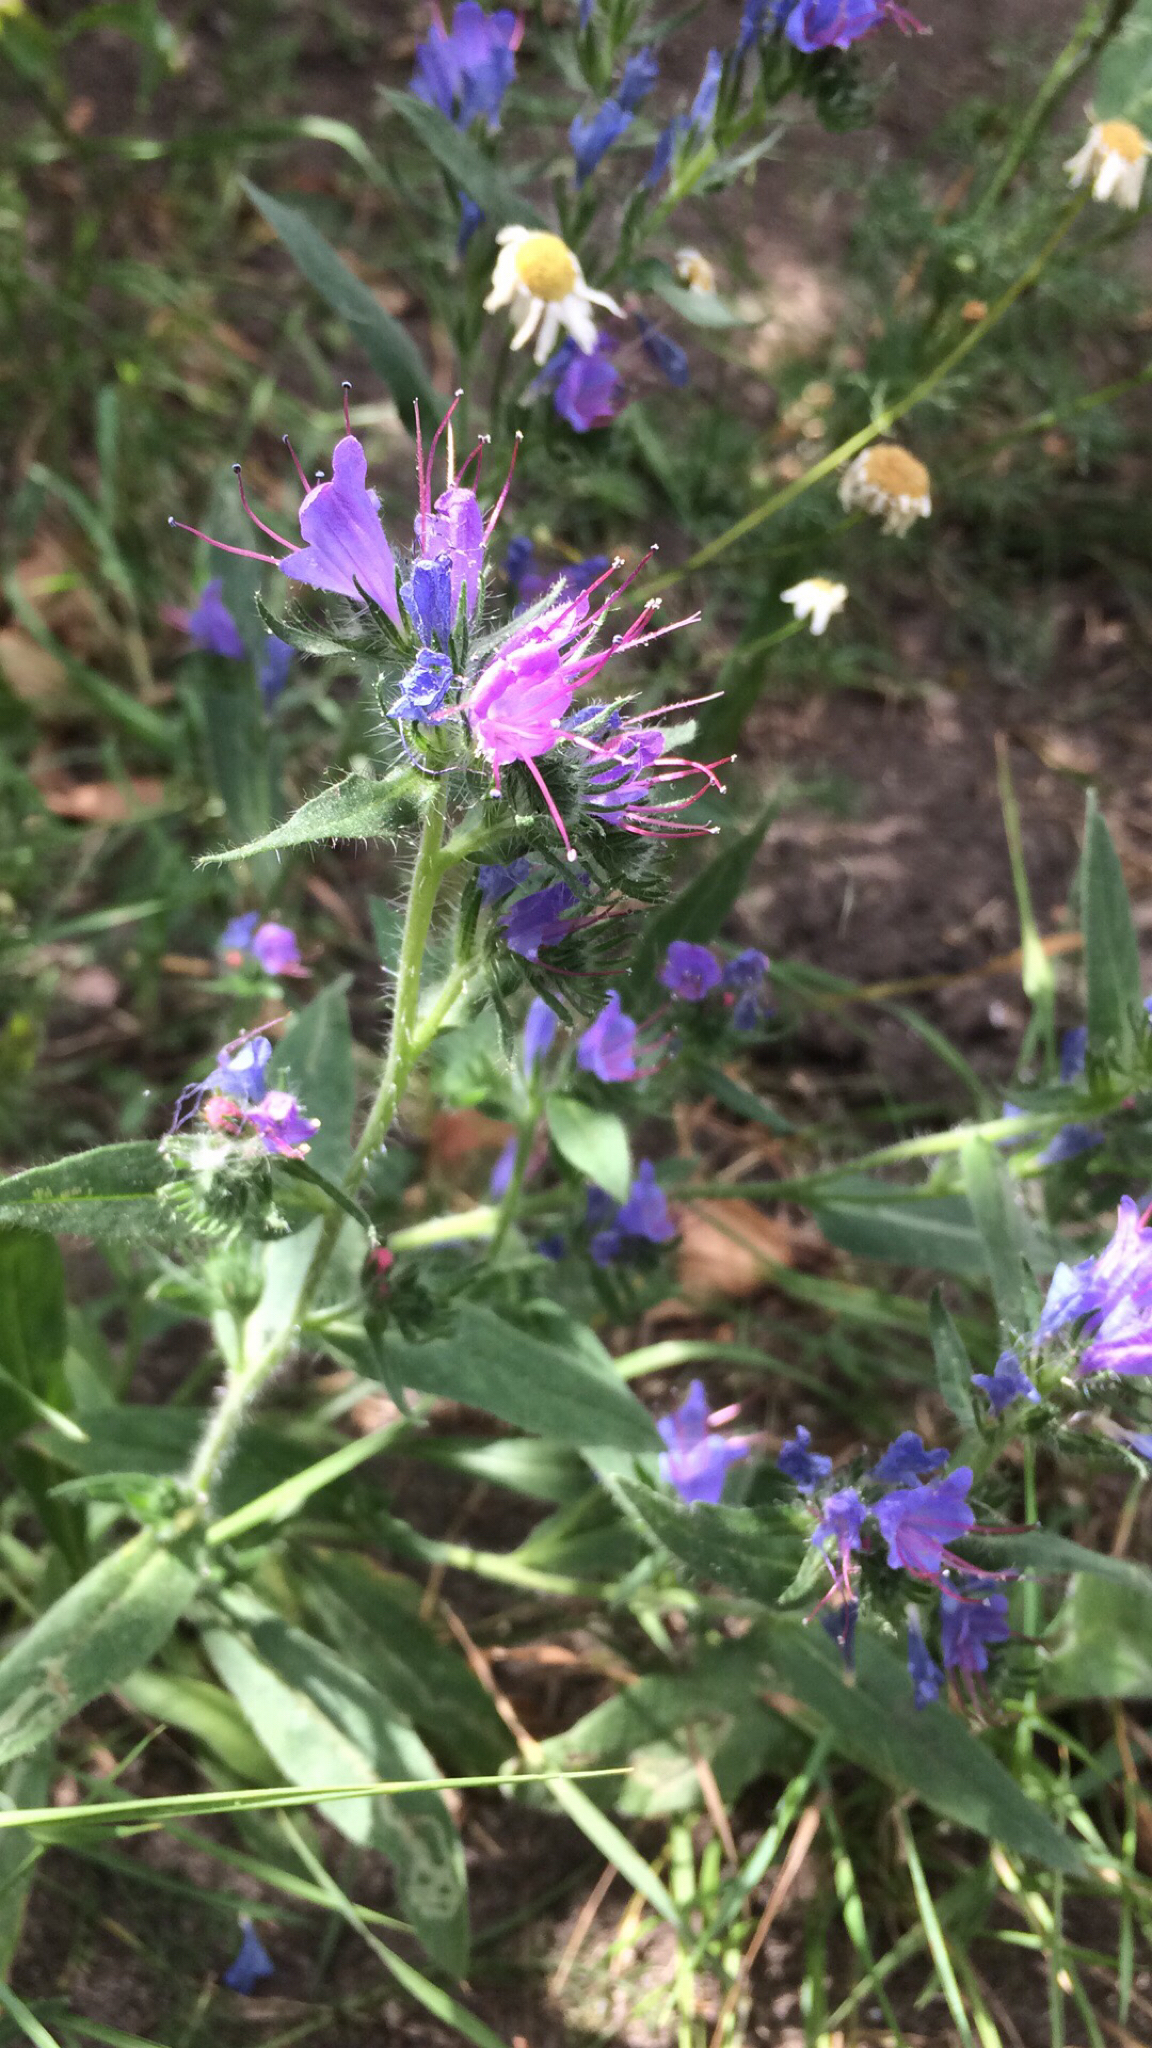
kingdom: Plantae
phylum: Tracheophyta
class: Magnoliopsida
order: Boraginales
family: Boraginaceae
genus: Echium
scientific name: Echium vulgare
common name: Common viper's bugloss
